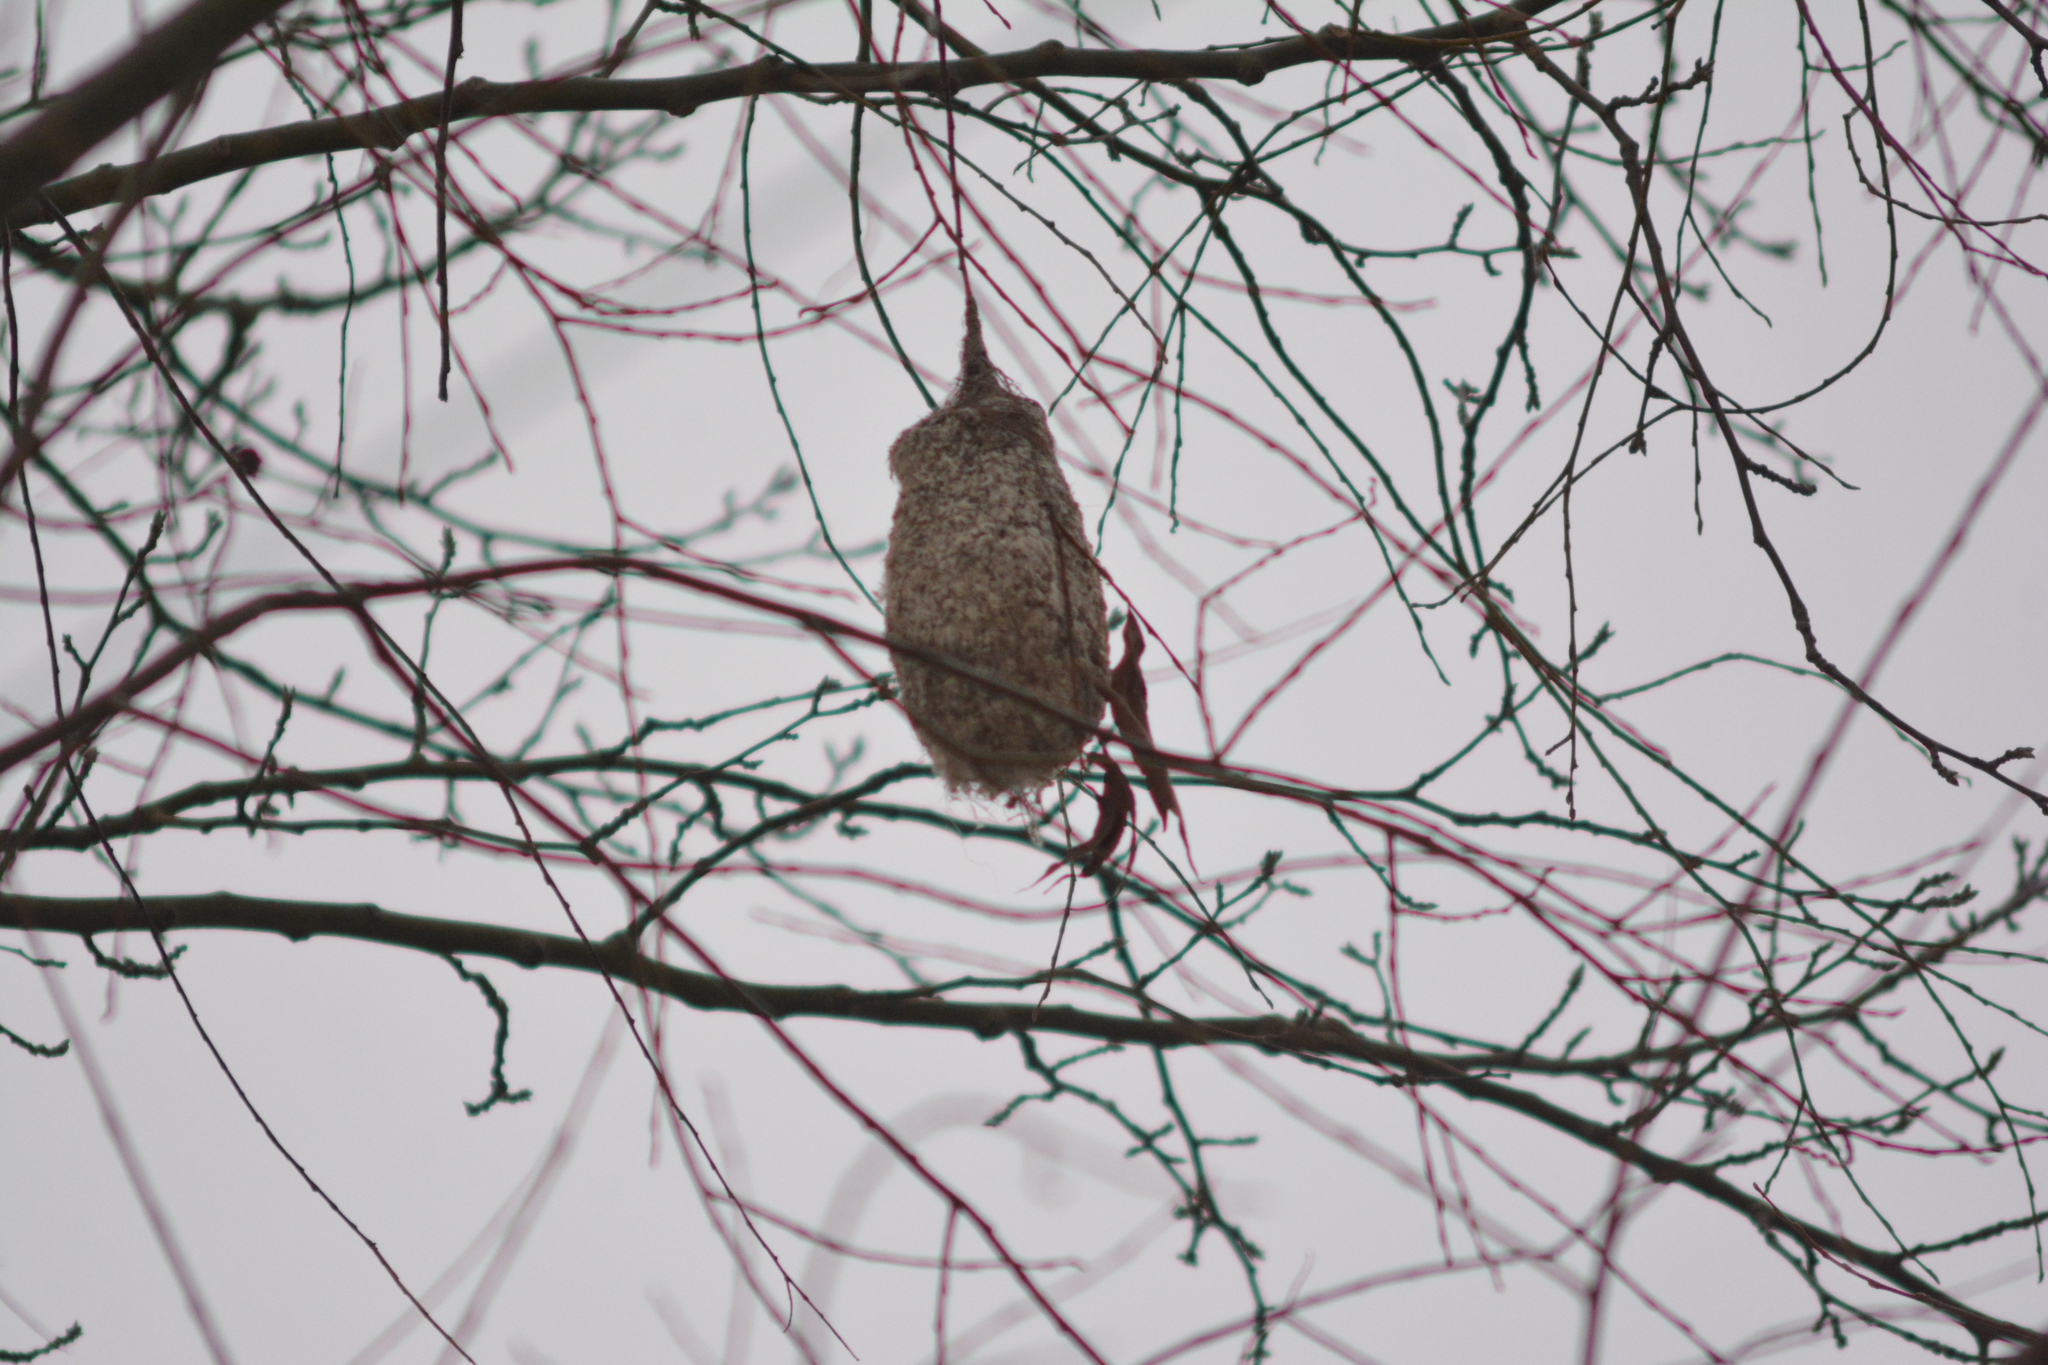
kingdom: Animalia
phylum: Chordata
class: Aves
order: Passeriformes
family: Remizidae
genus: Remiz
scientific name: Remiz pendulinus
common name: Eurasian penduline tit
